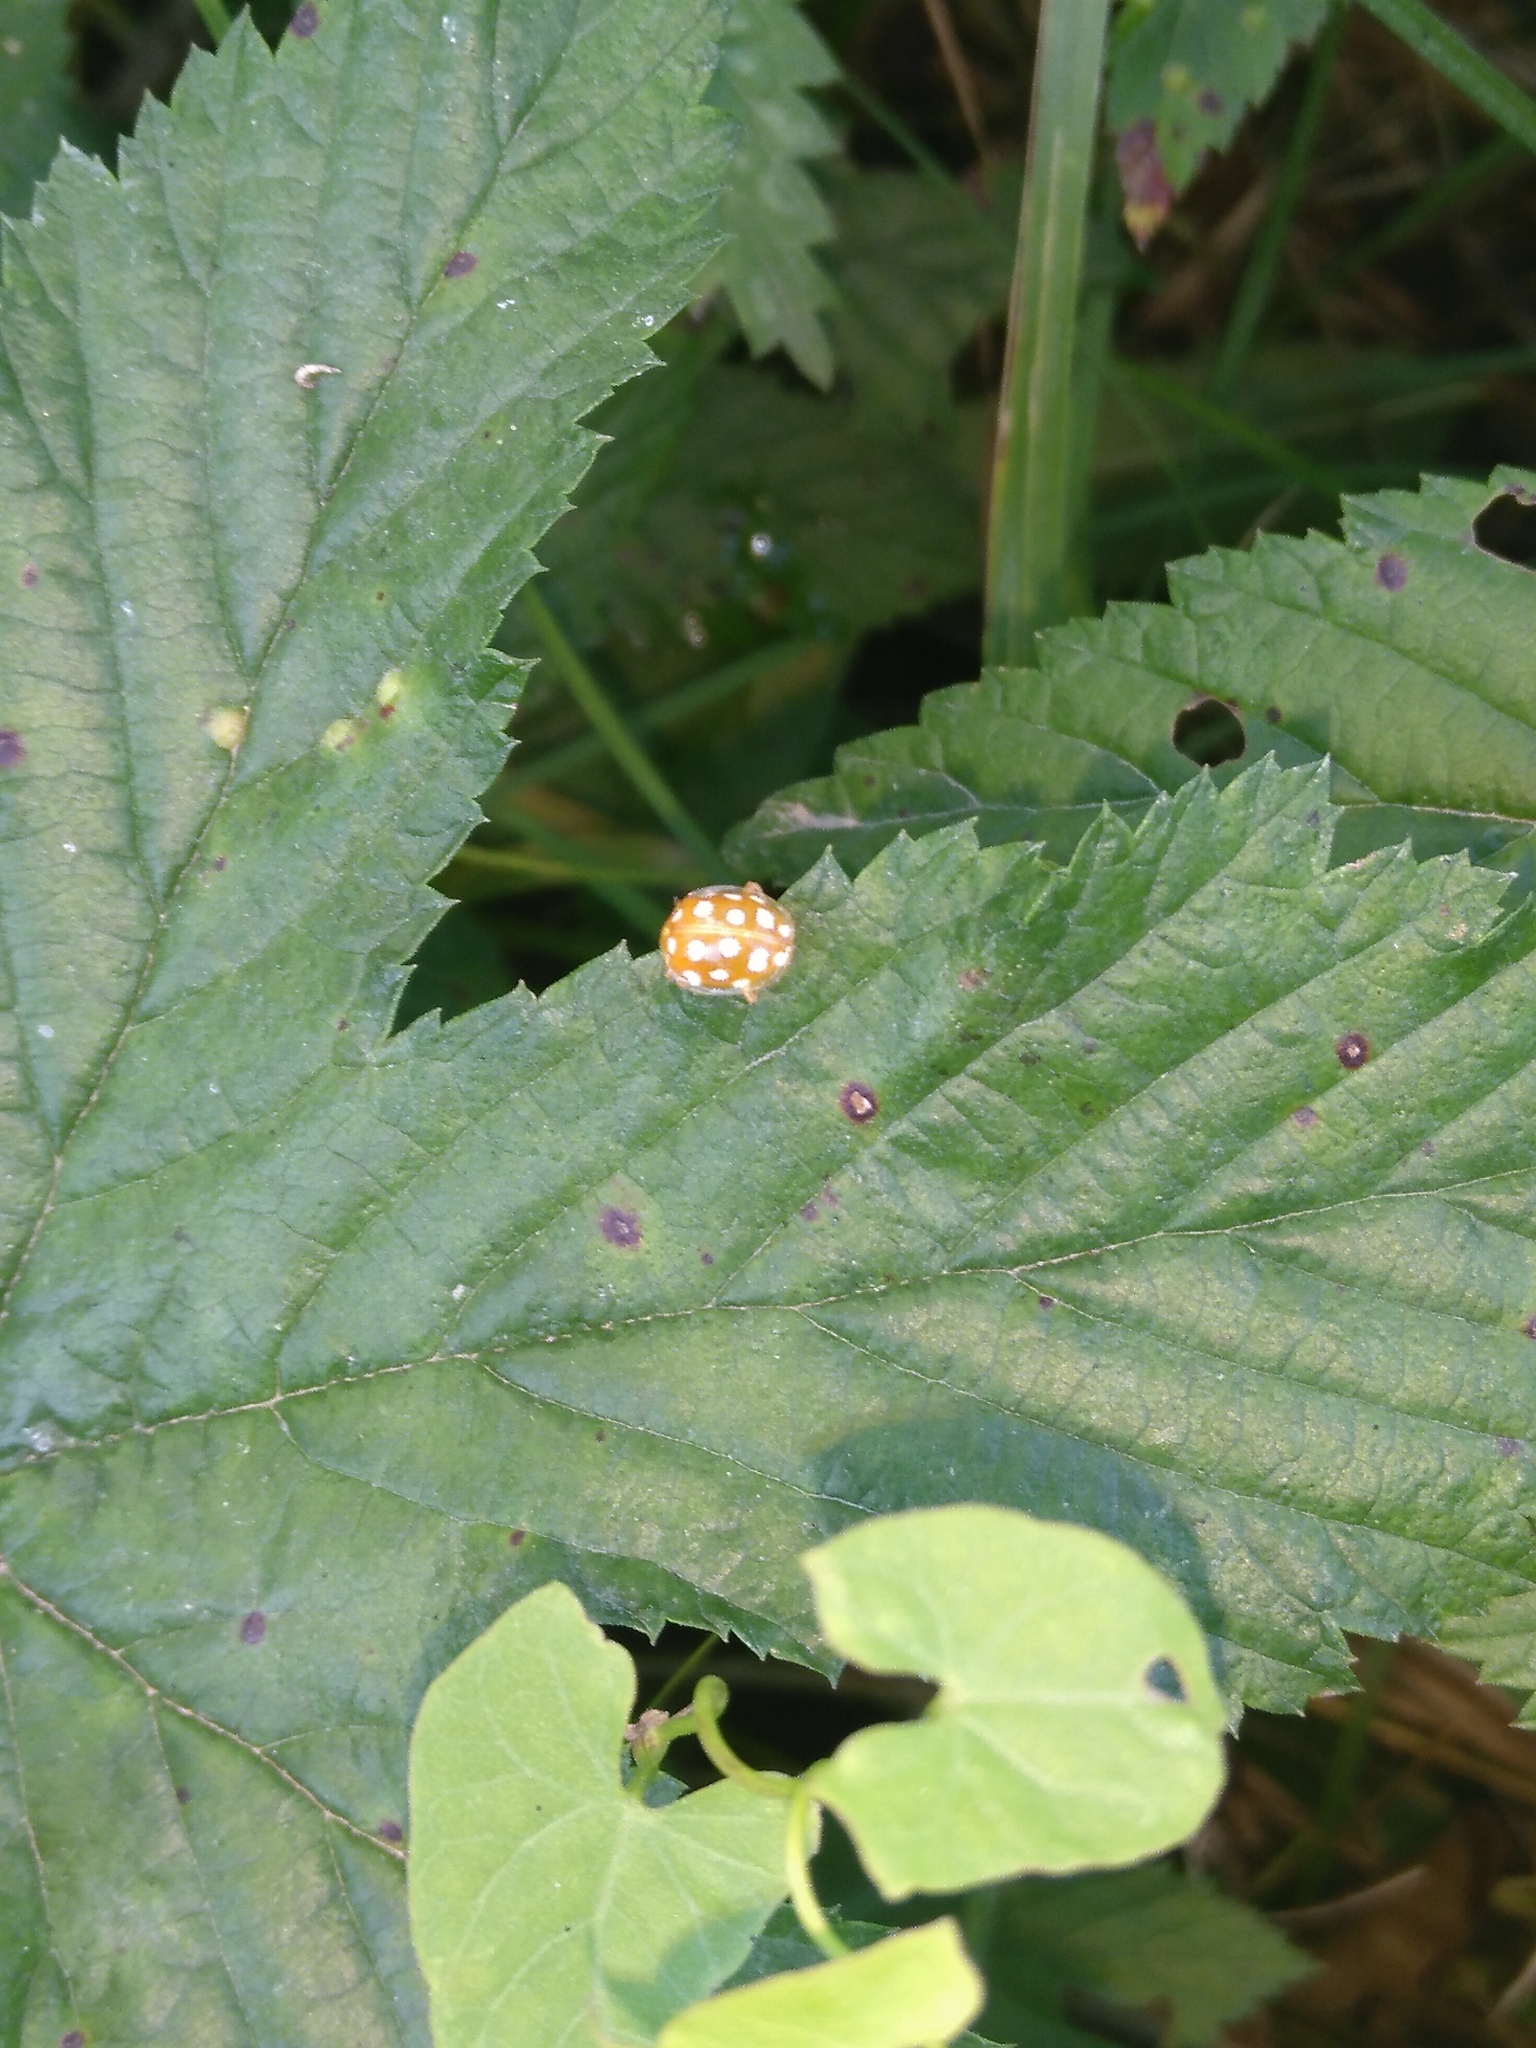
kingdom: Animalia
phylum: Arthropoda
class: Insecta
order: Coleoptera
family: Coccinellidae
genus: Halyzia
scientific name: Halyzia sedecimguttata
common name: Orange ladybird
